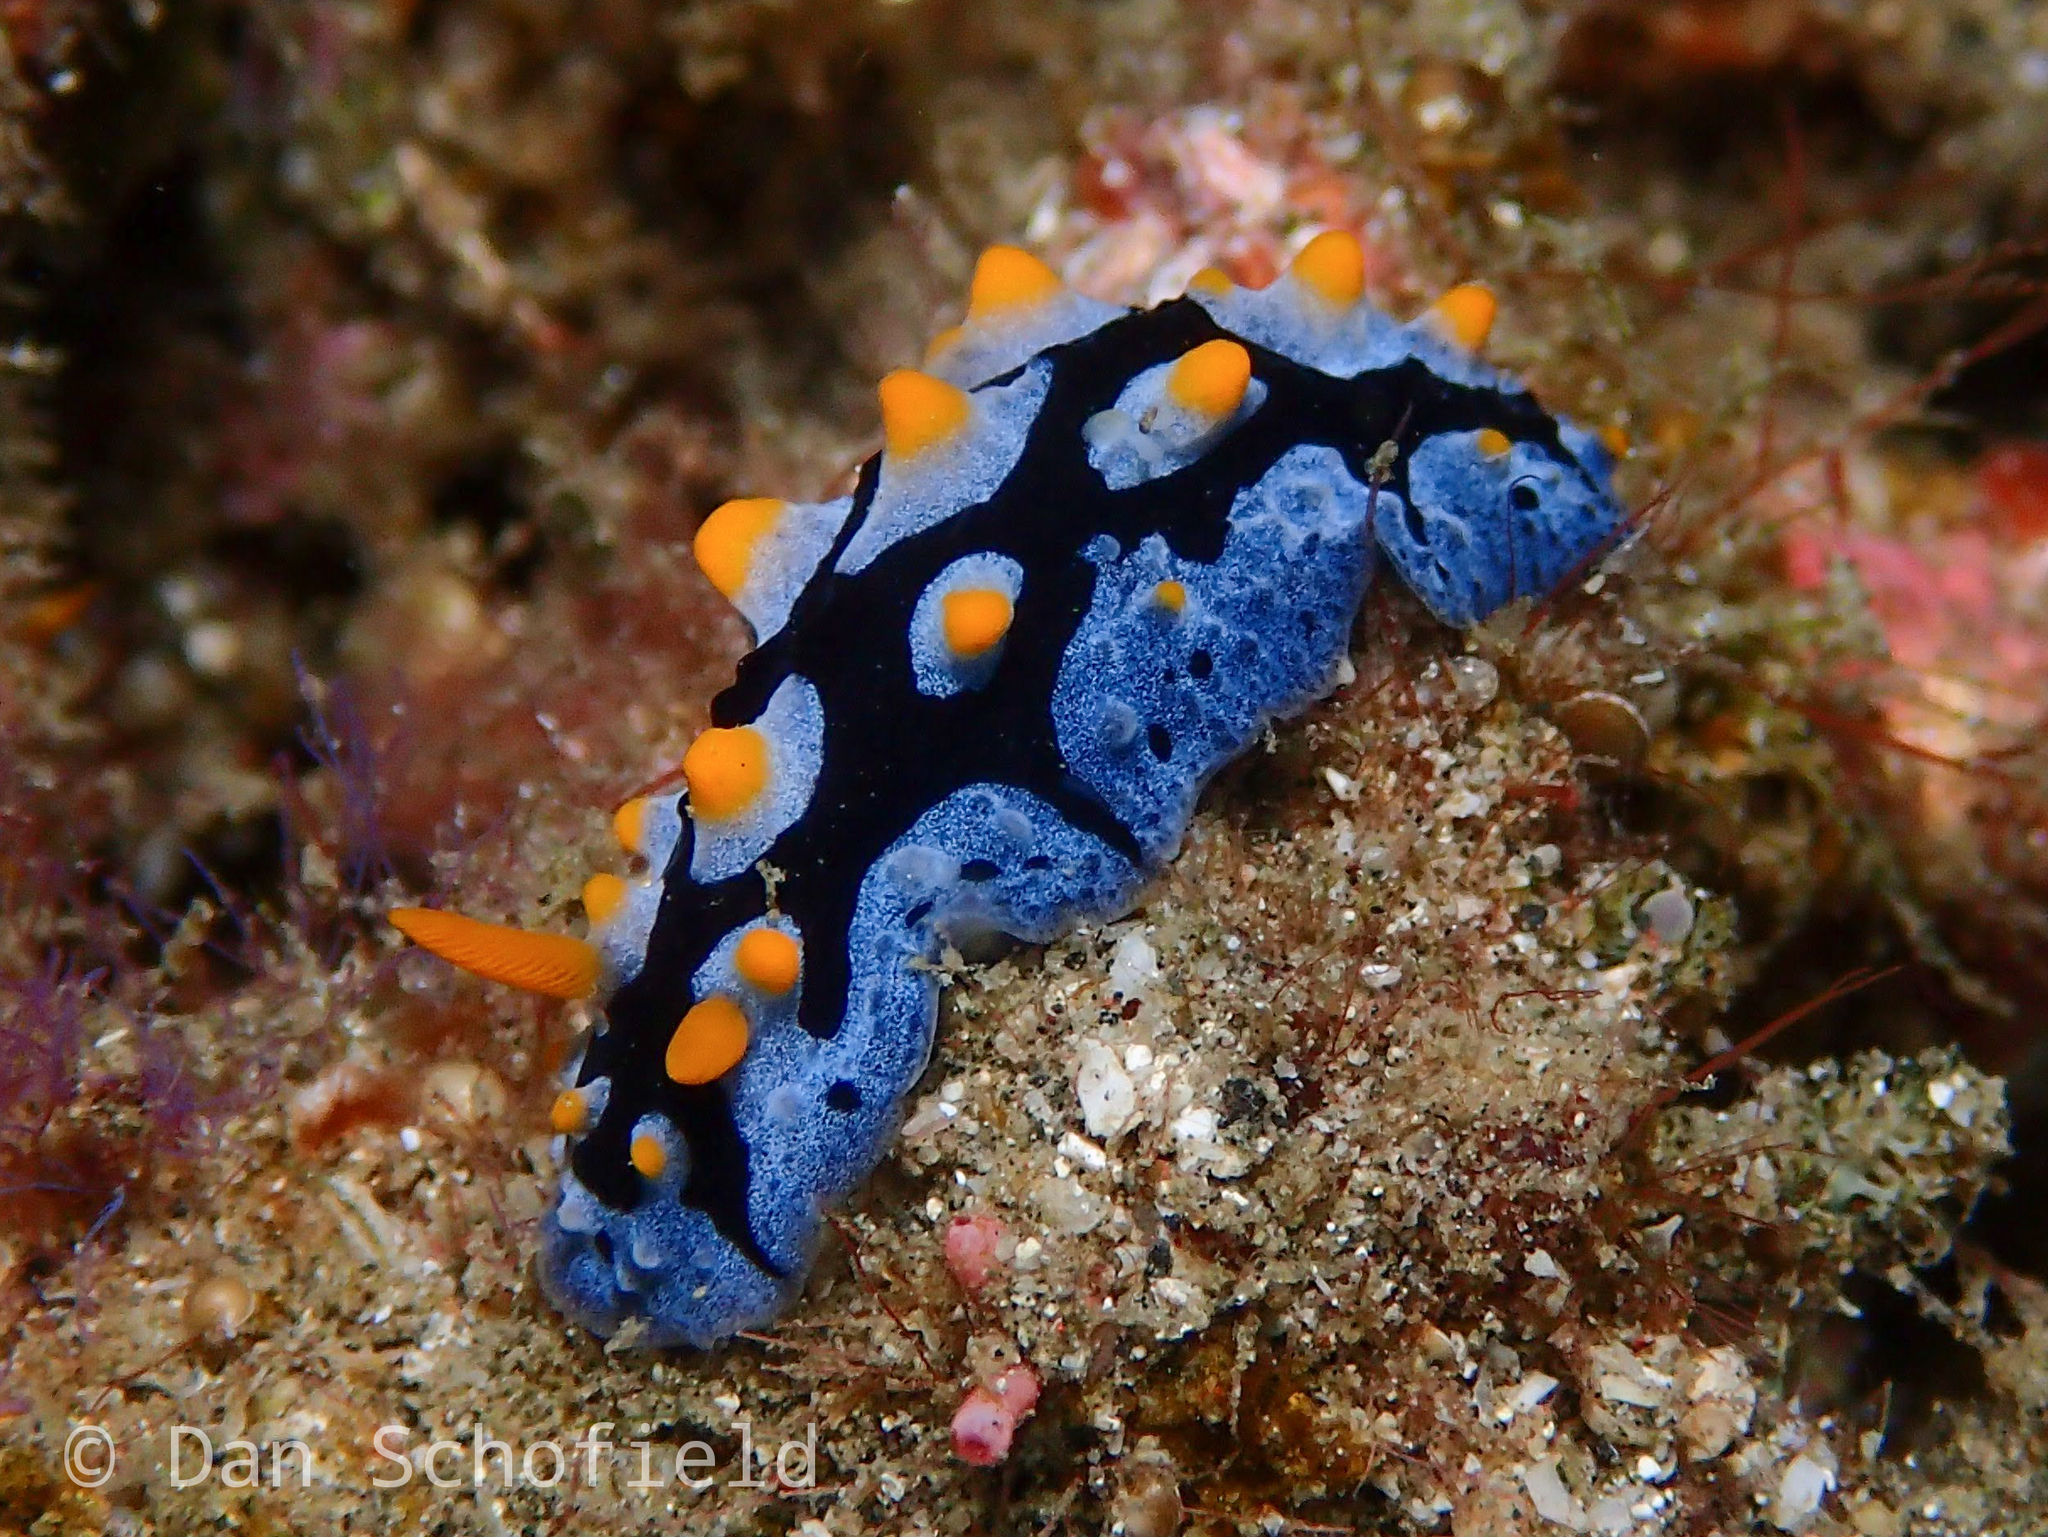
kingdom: Animalia
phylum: Mollusca
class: Gastropoda
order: Nudibranchia
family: Phyllidiidae
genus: Phyllidia
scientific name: Phyllidia picta
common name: Black-rayed phyllidia
